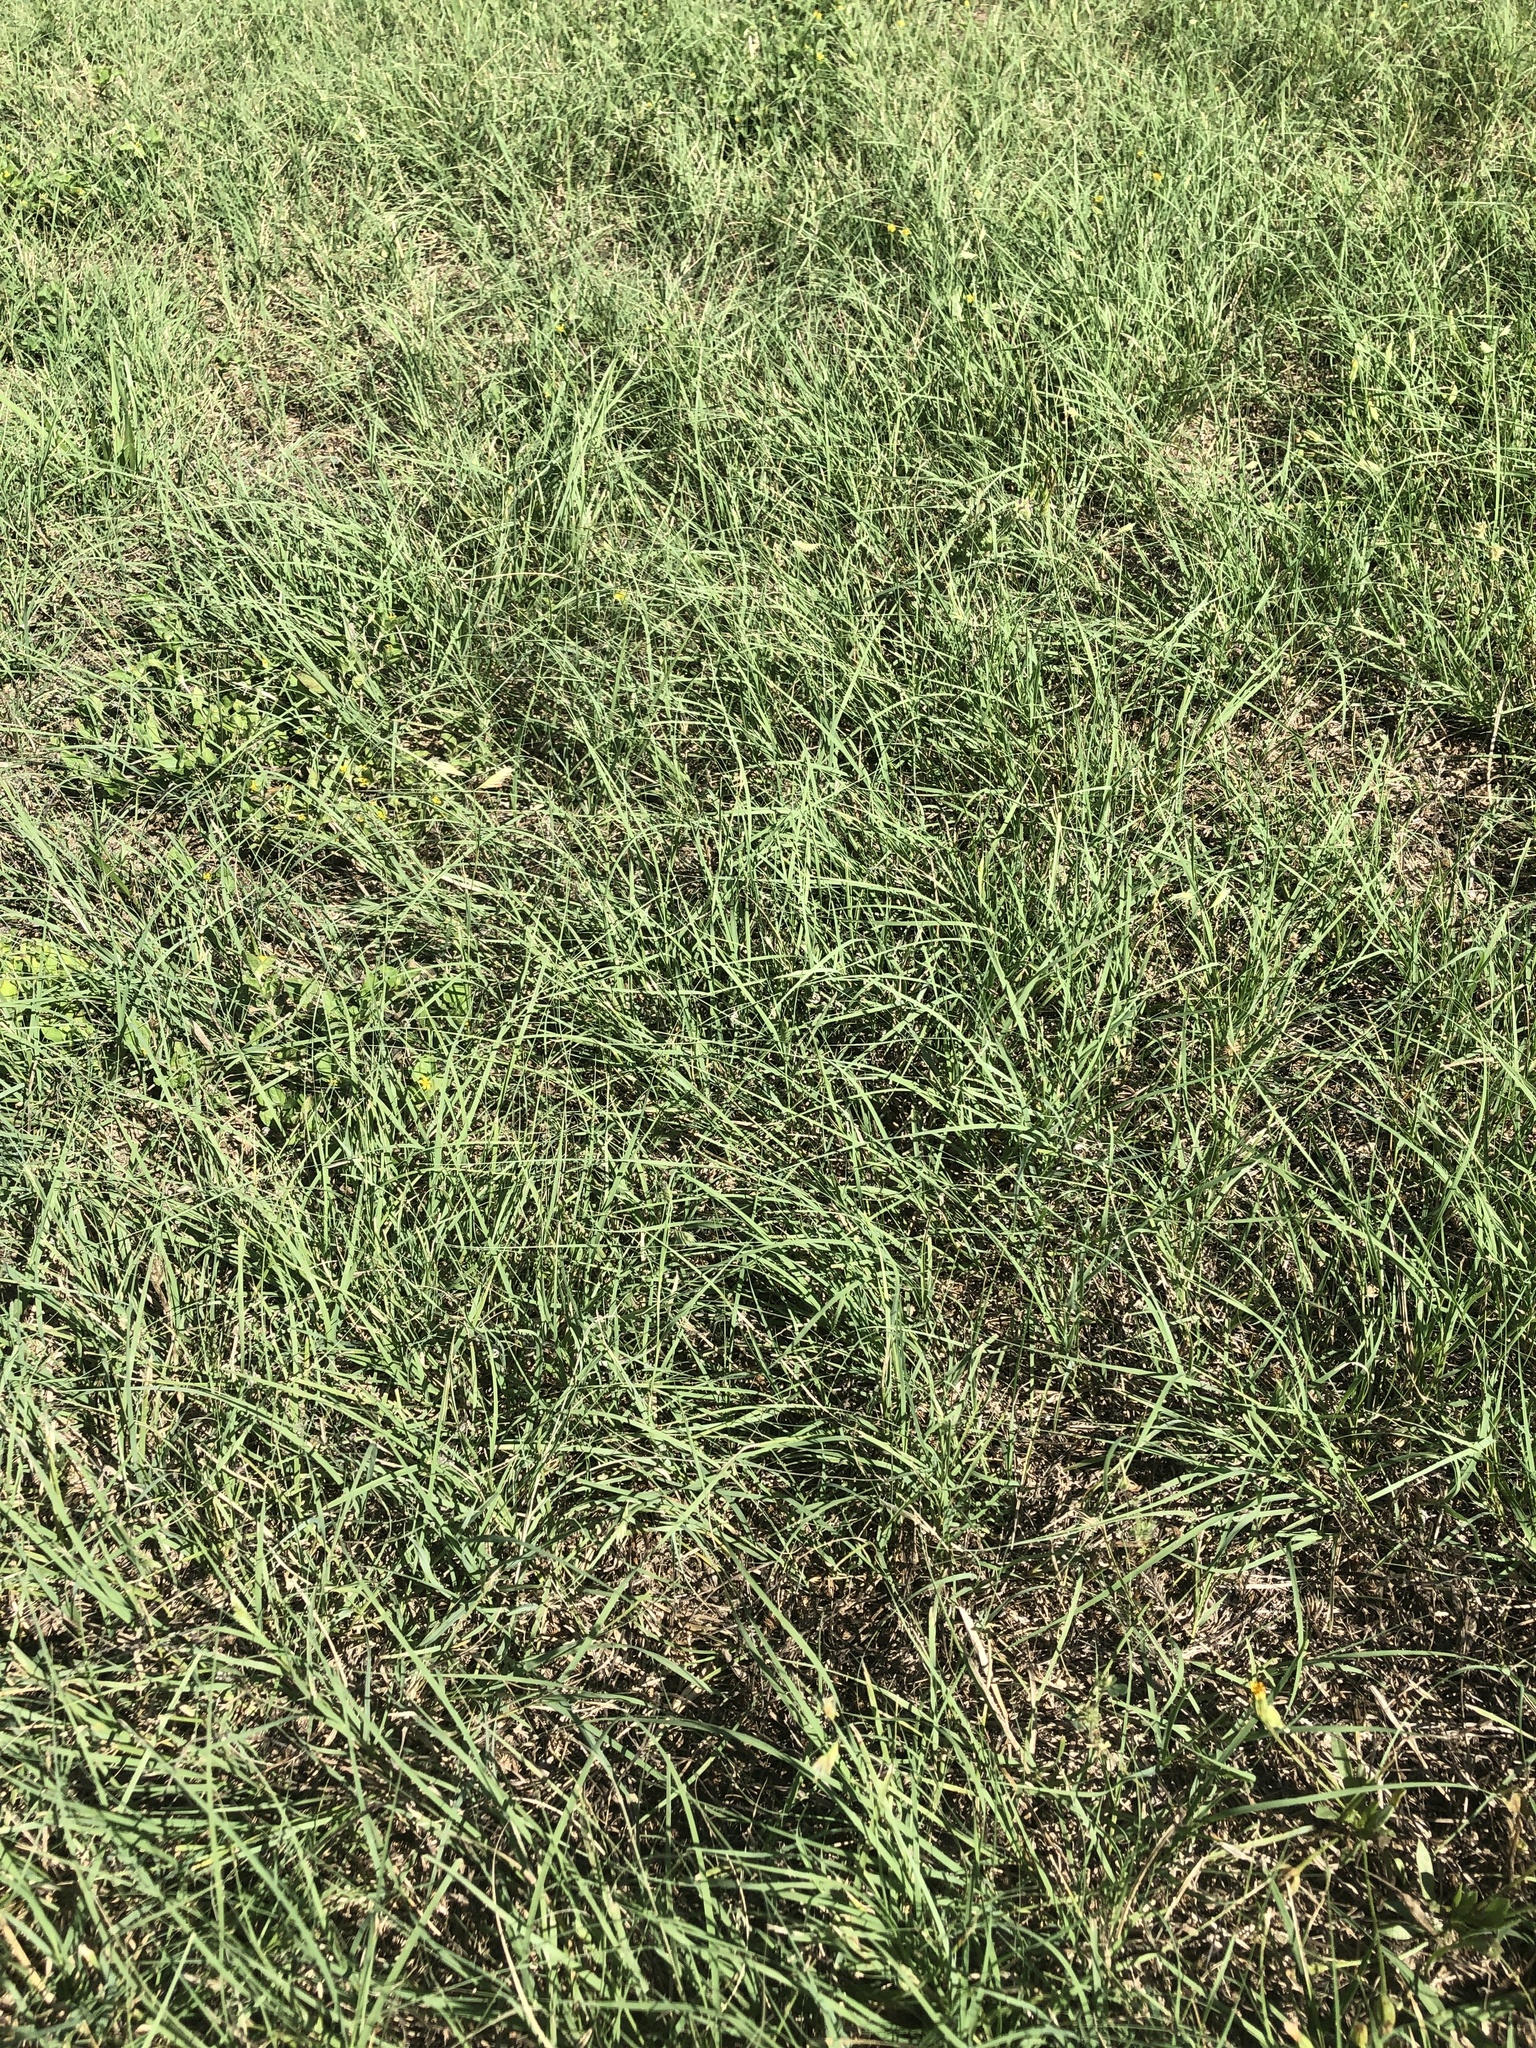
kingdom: Plantae
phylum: Tracheophyta
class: Liliopsida
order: Poales
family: Poaceae
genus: Bouteloua
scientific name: Bouteloua dactyloides
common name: Buffalo grass
